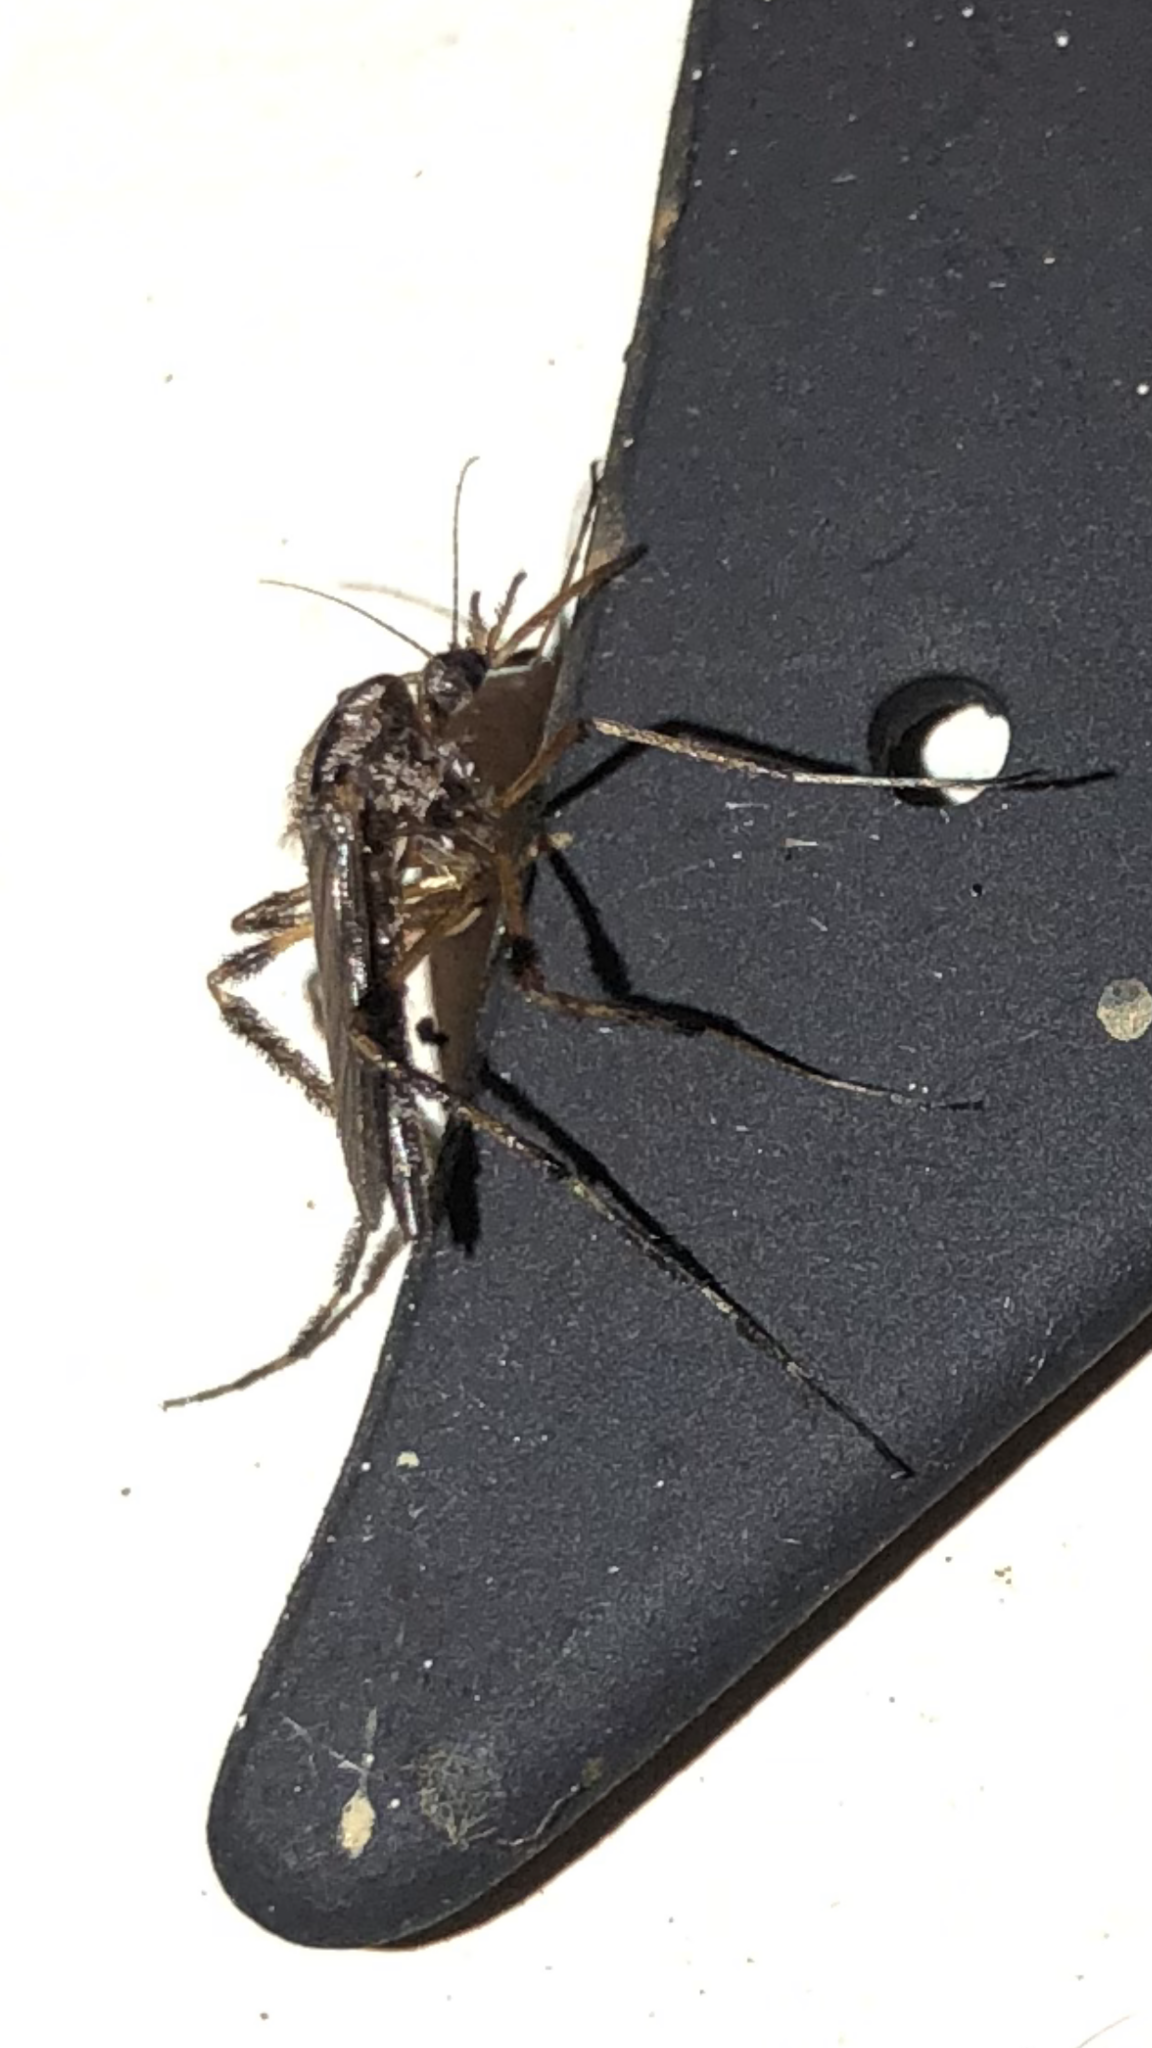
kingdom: Animalia
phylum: Arthropoda
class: Insecta
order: Diptera
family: Culicidae
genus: Psorophora
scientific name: Psorophora ciliata
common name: Gallinipper
